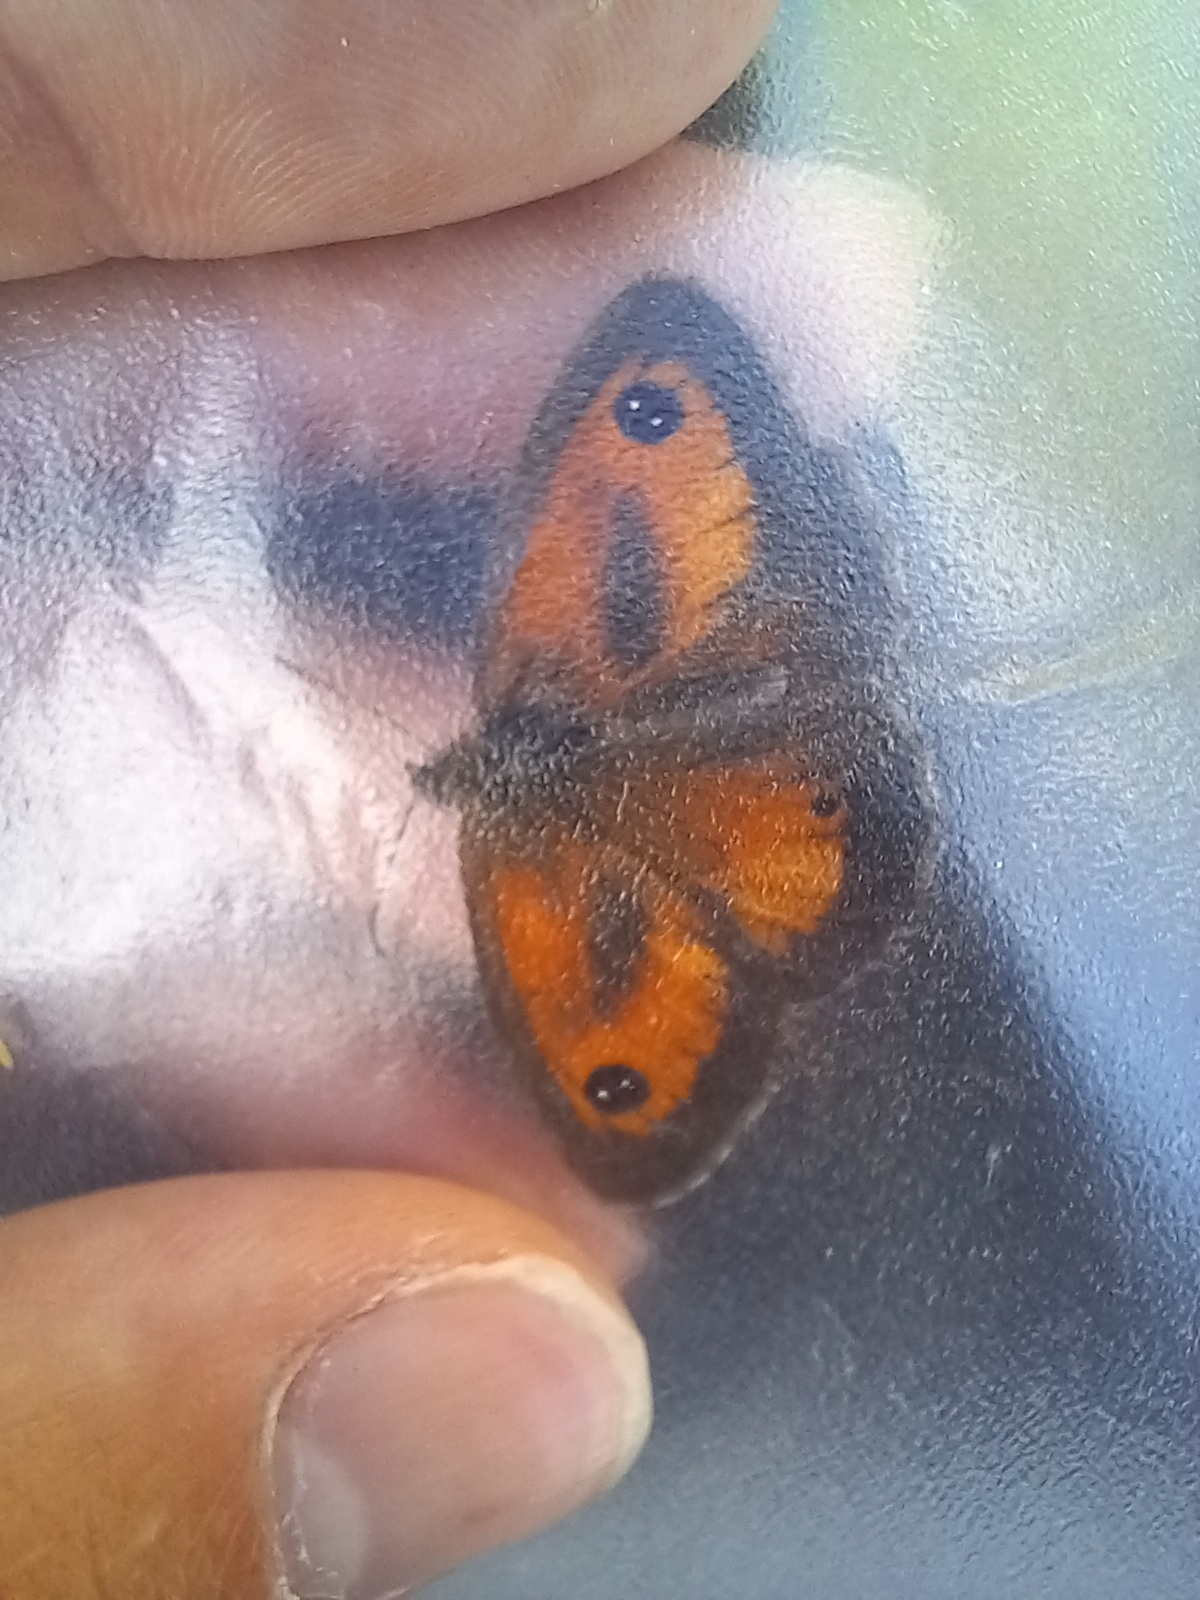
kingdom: Animalia
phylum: Arthropoda
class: Insecta
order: Lepidoptera
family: Nymphalidae
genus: Pyronia
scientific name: Pyronia tithonus
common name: Gatekeeper
